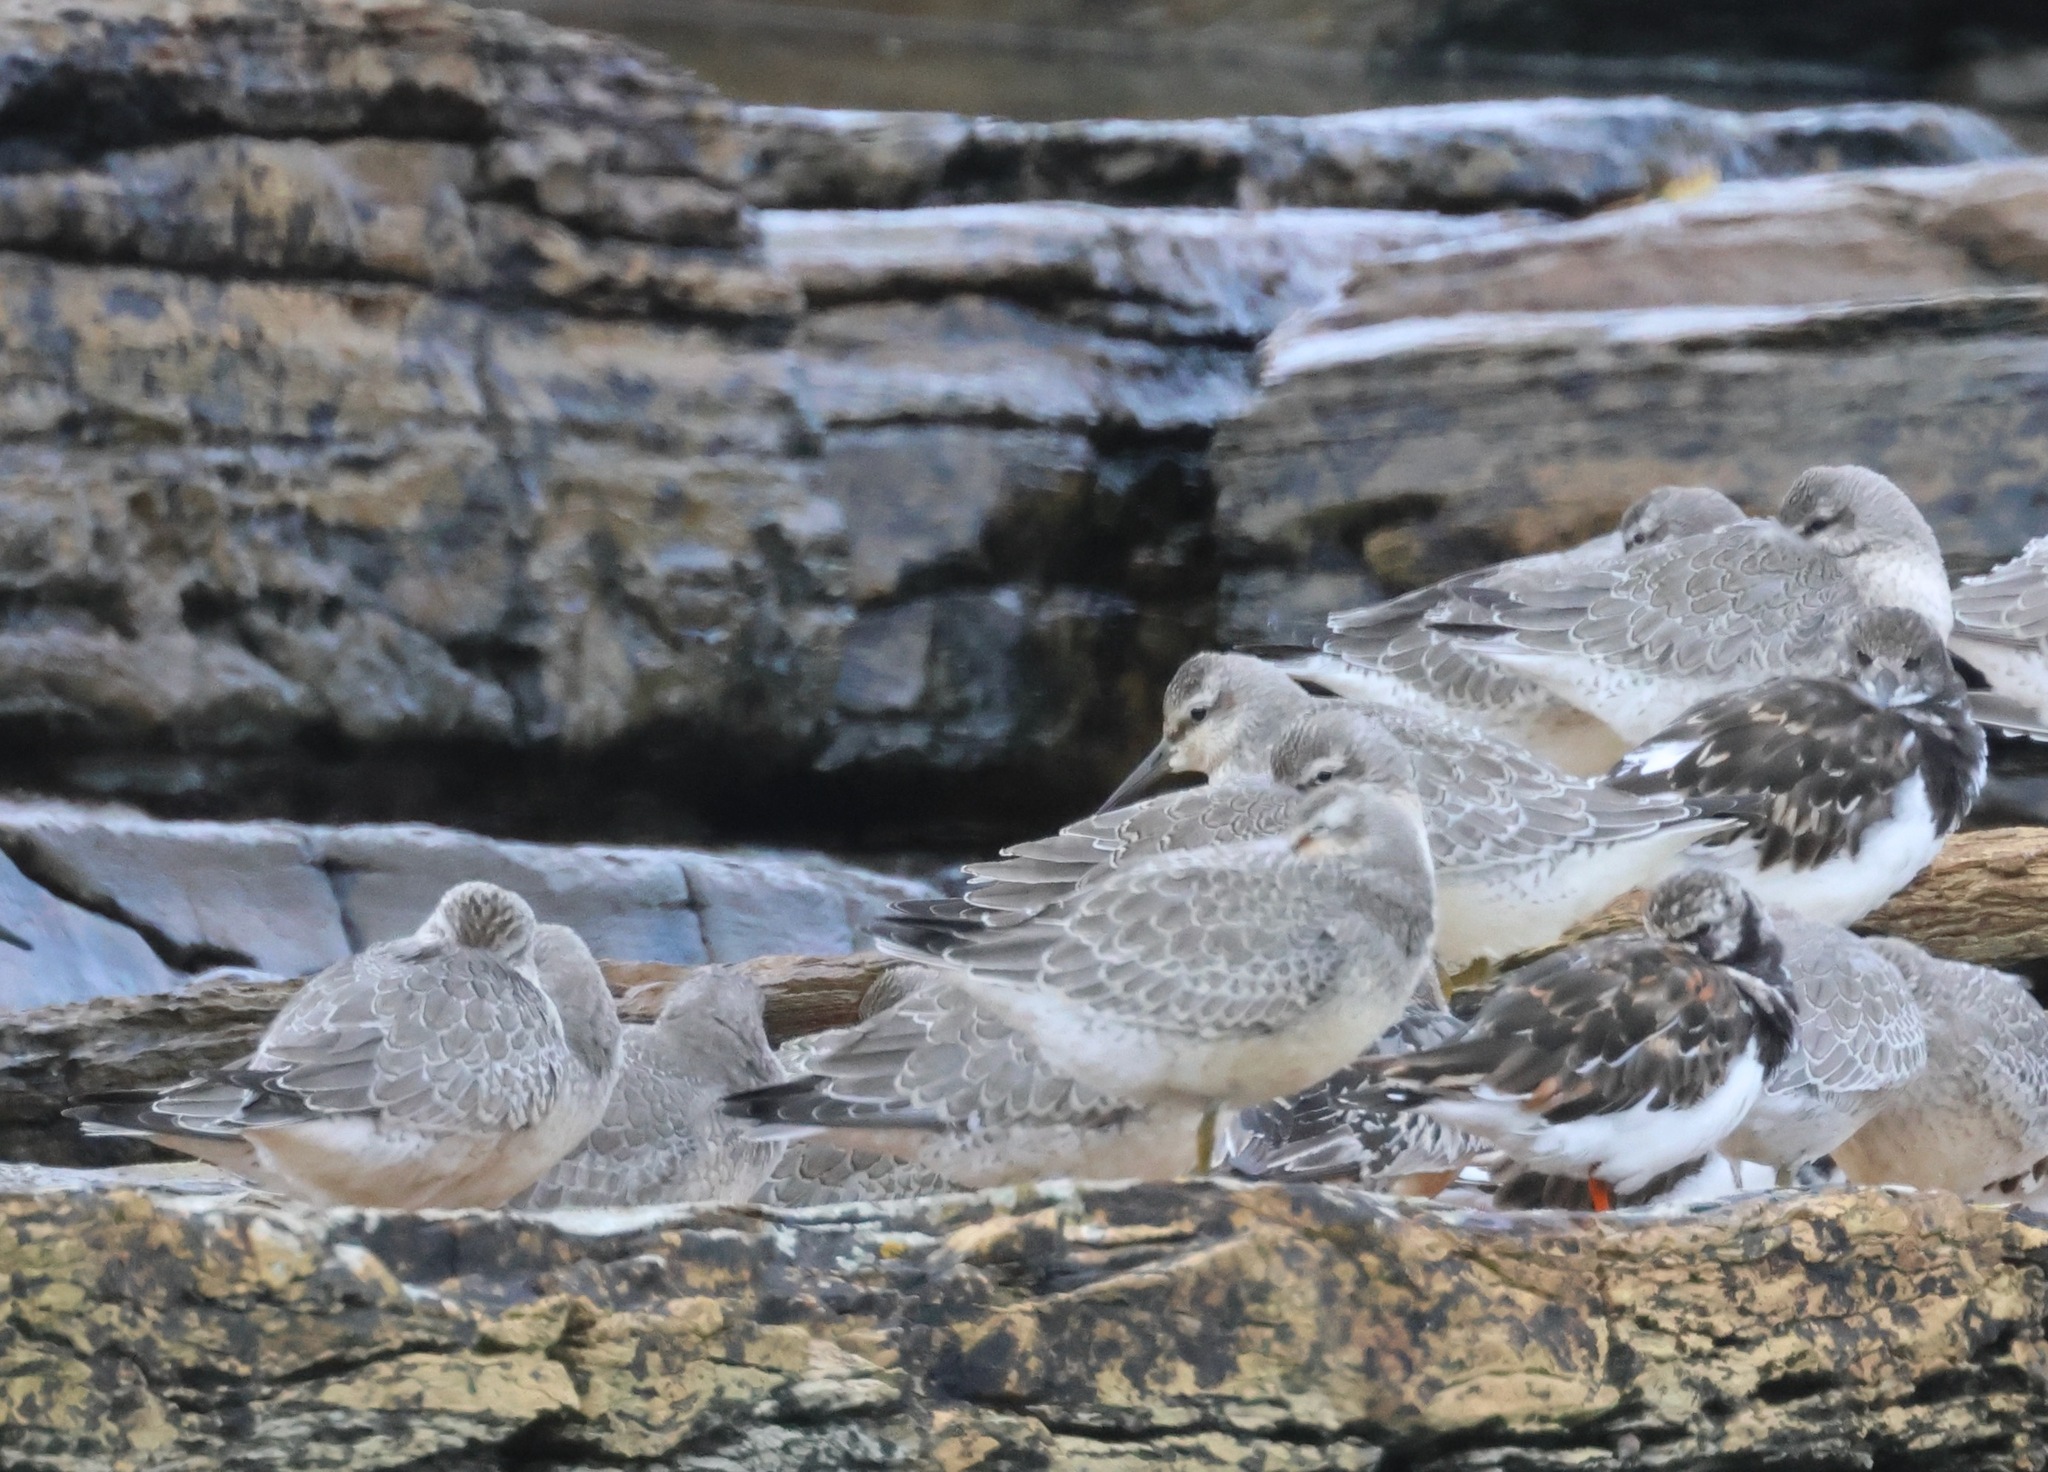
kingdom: Animalia
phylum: Chordata
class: Aves
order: Charadriiformes
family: Scolopacidae
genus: Calidris
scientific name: Calidris canutus
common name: Red knot
